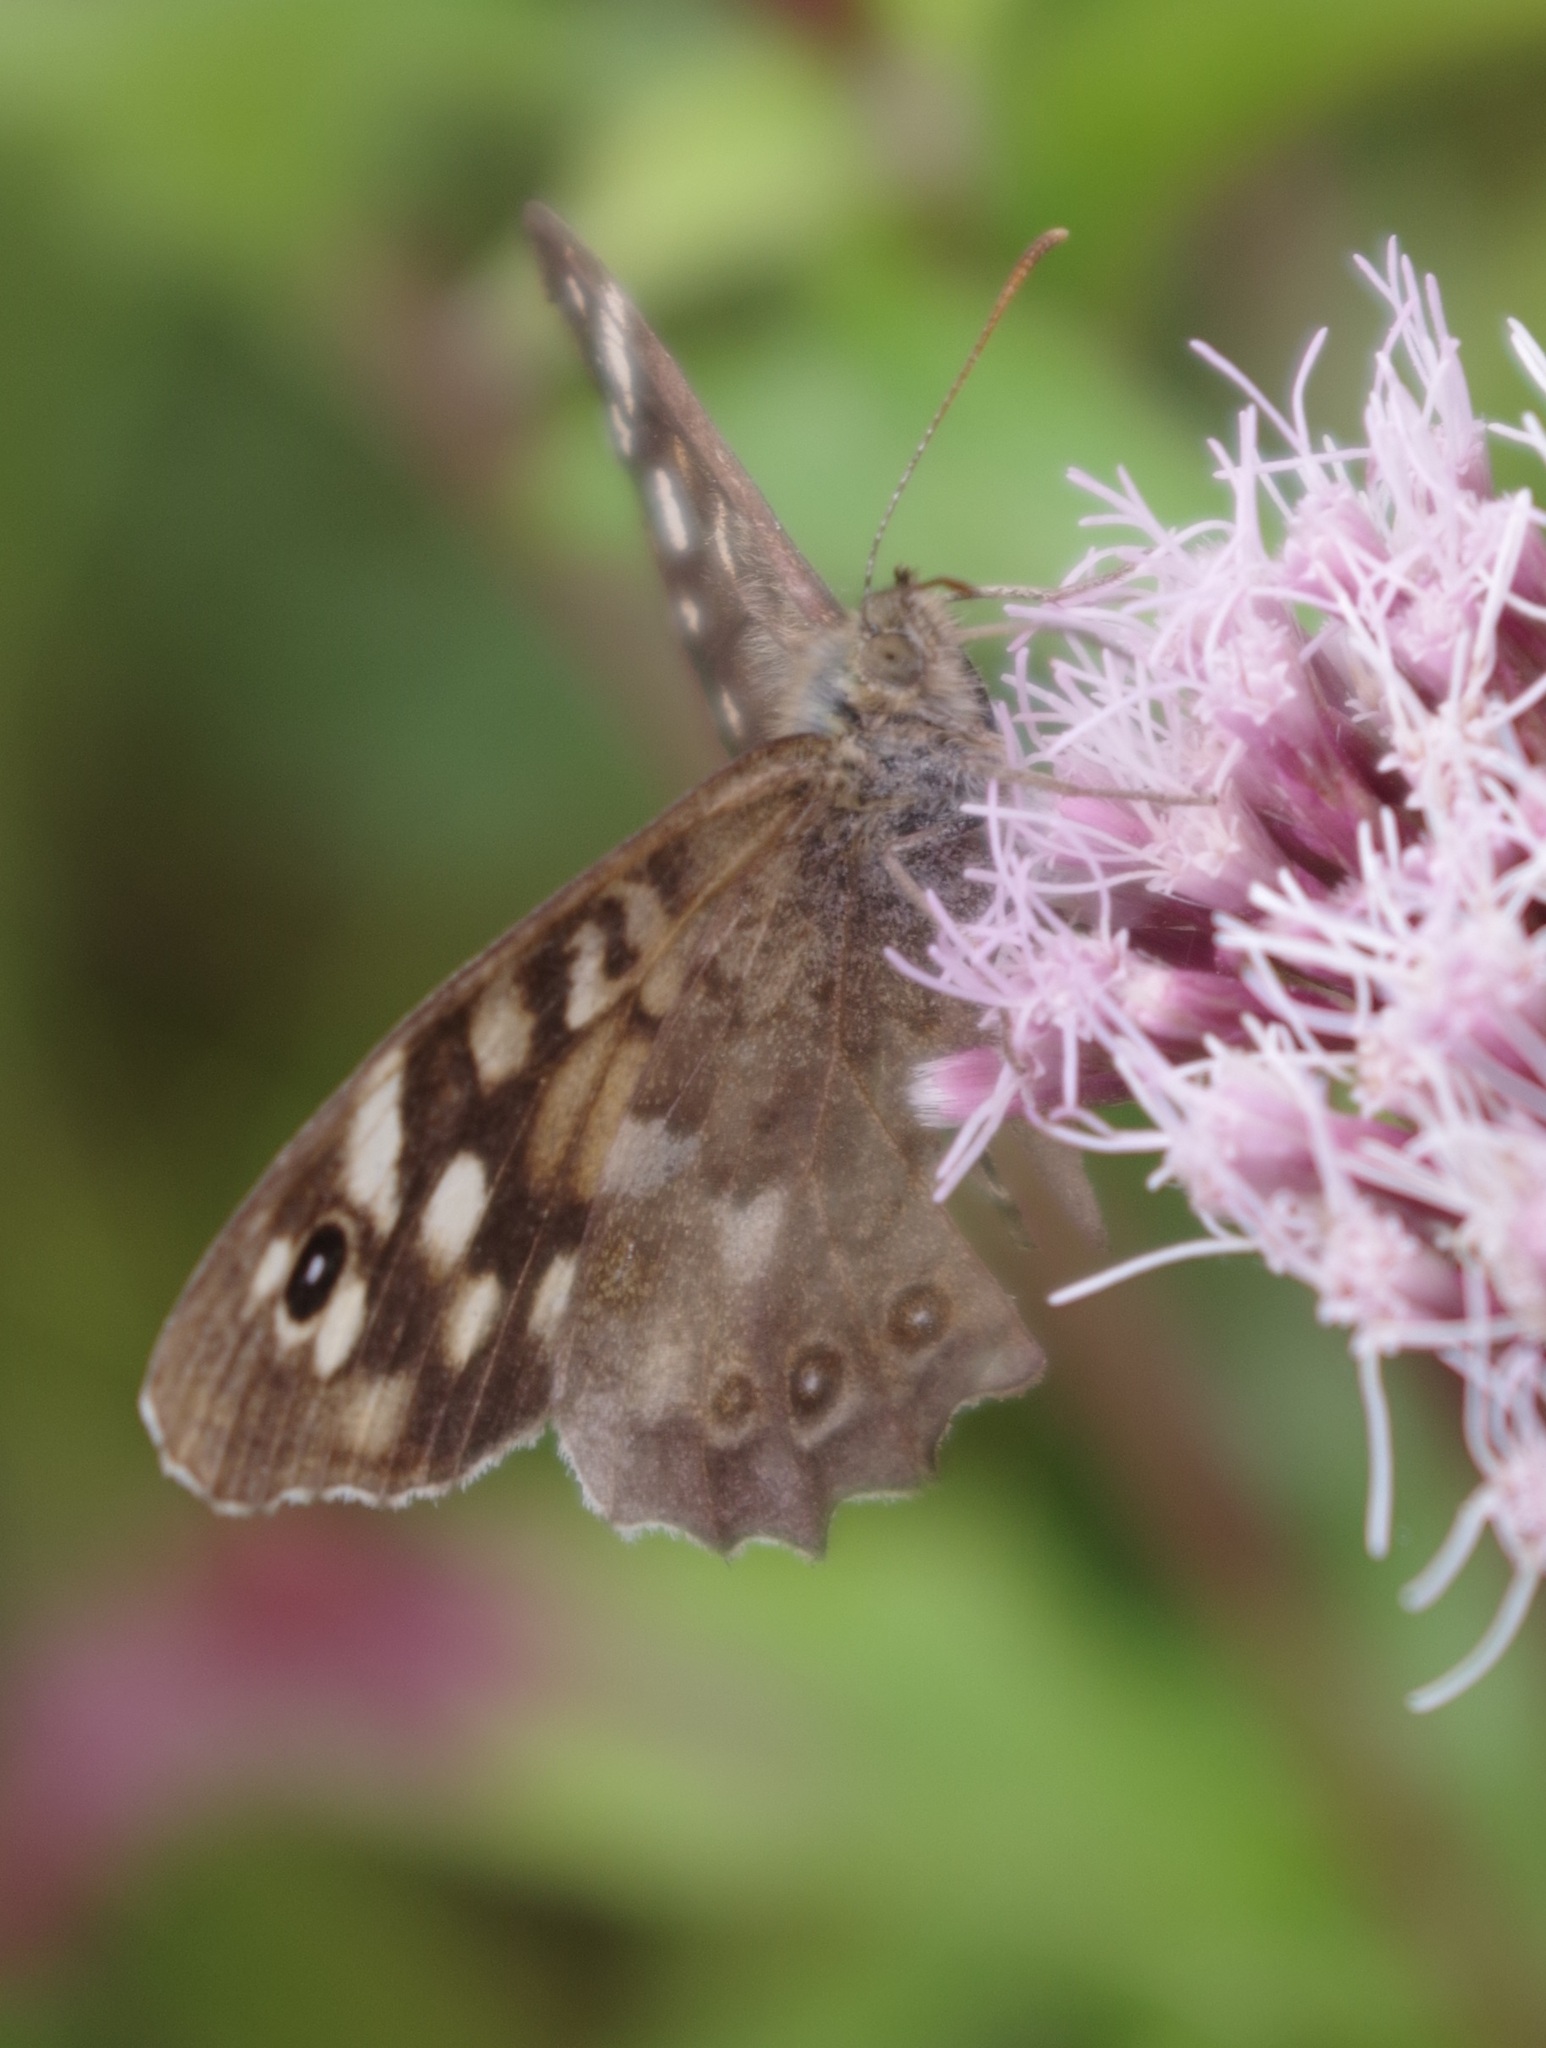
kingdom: Animalia
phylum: Arthropoda
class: Insecta
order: Lepidoptera
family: Nymphalidae
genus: Pararge
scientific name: Pararge aegeria
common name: Speckled wood
